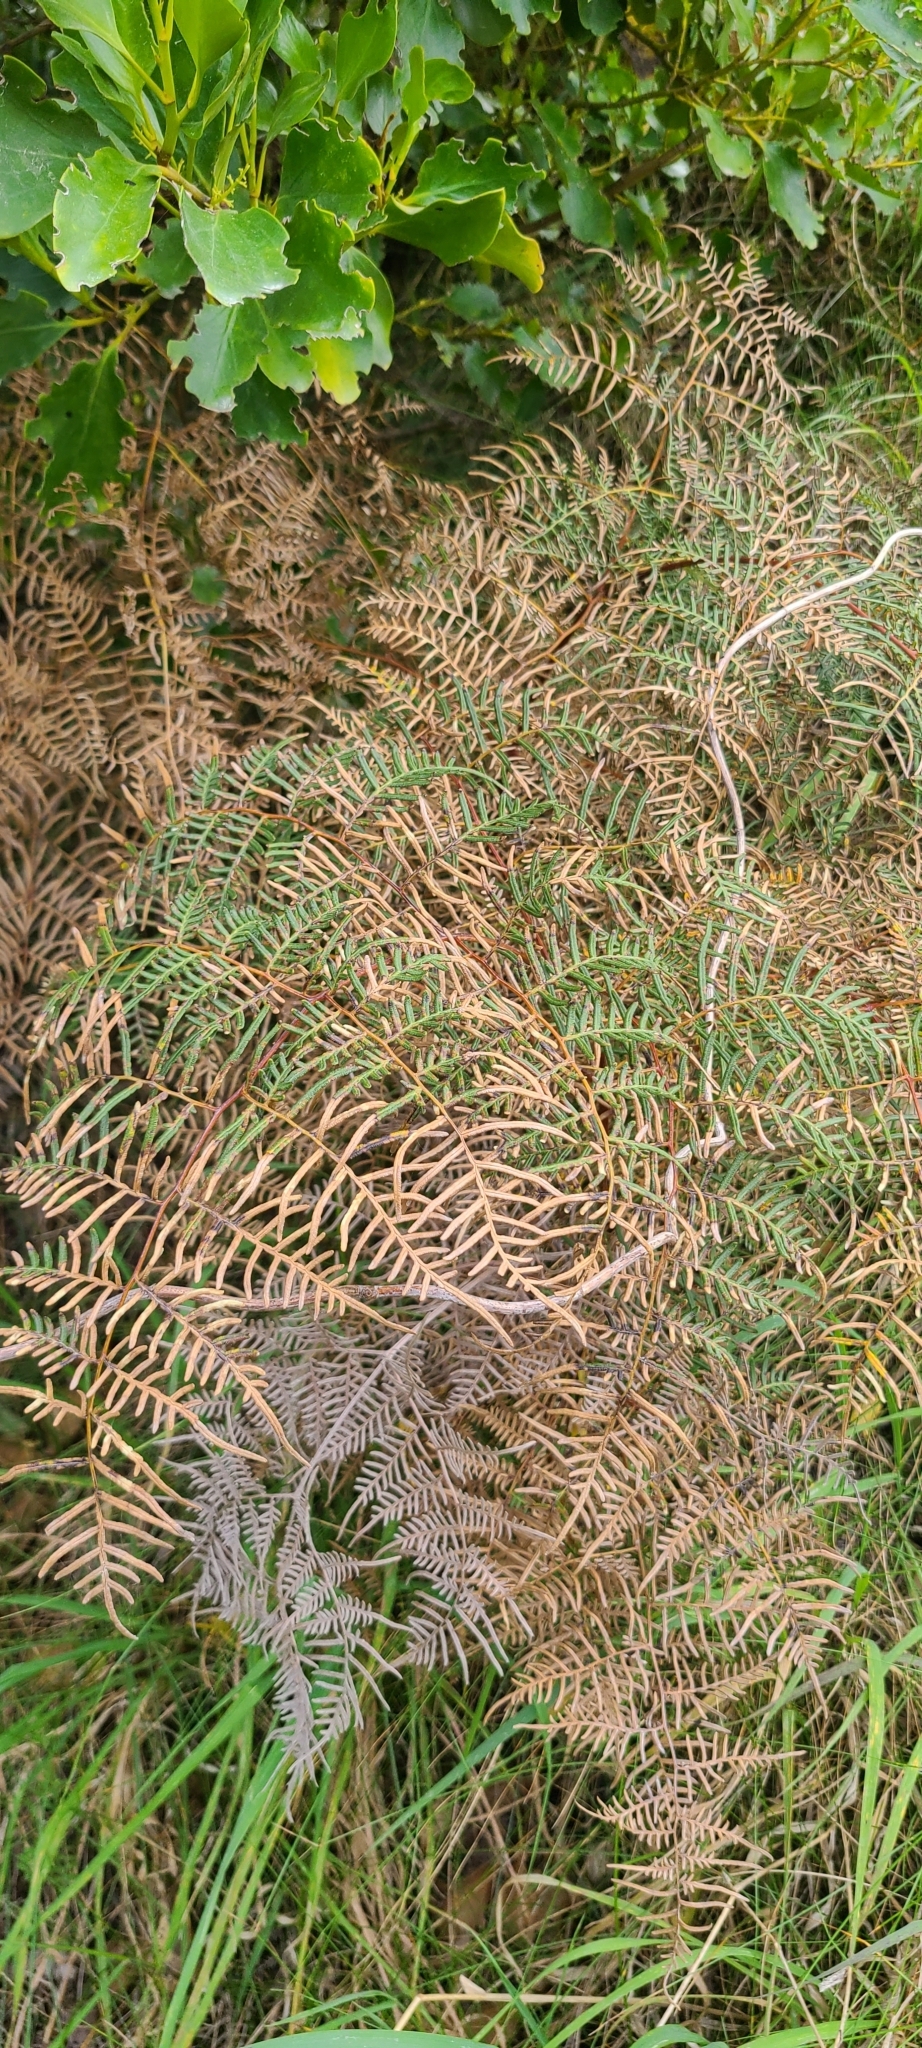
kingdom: Plantae
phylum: Tracheophyta
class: Polypodiopsida
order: Polypodiales
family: Dennstaedtiaceae
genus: Pteridium
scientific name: Pteridium esculentum
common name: Bracken fern
